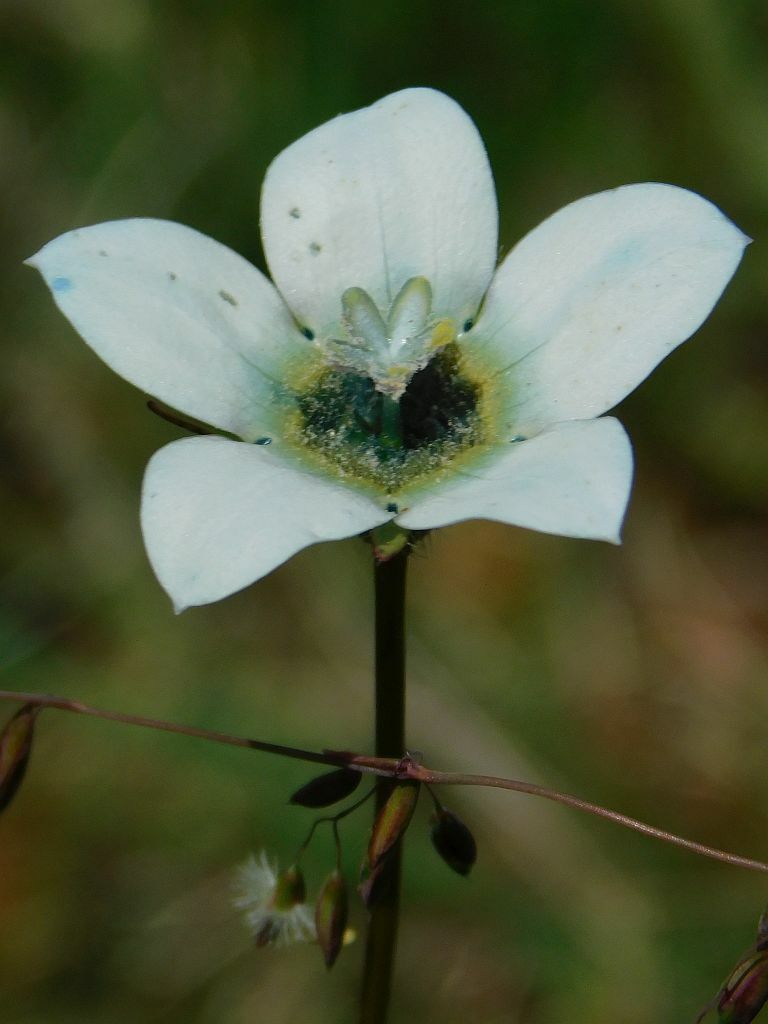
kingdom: Plantae
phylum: Tracheophyta
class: Magnoliopsida
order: Asterales
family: Campanulaceae
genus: Wahlenbergia
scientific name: Wahlenbergia capensis
